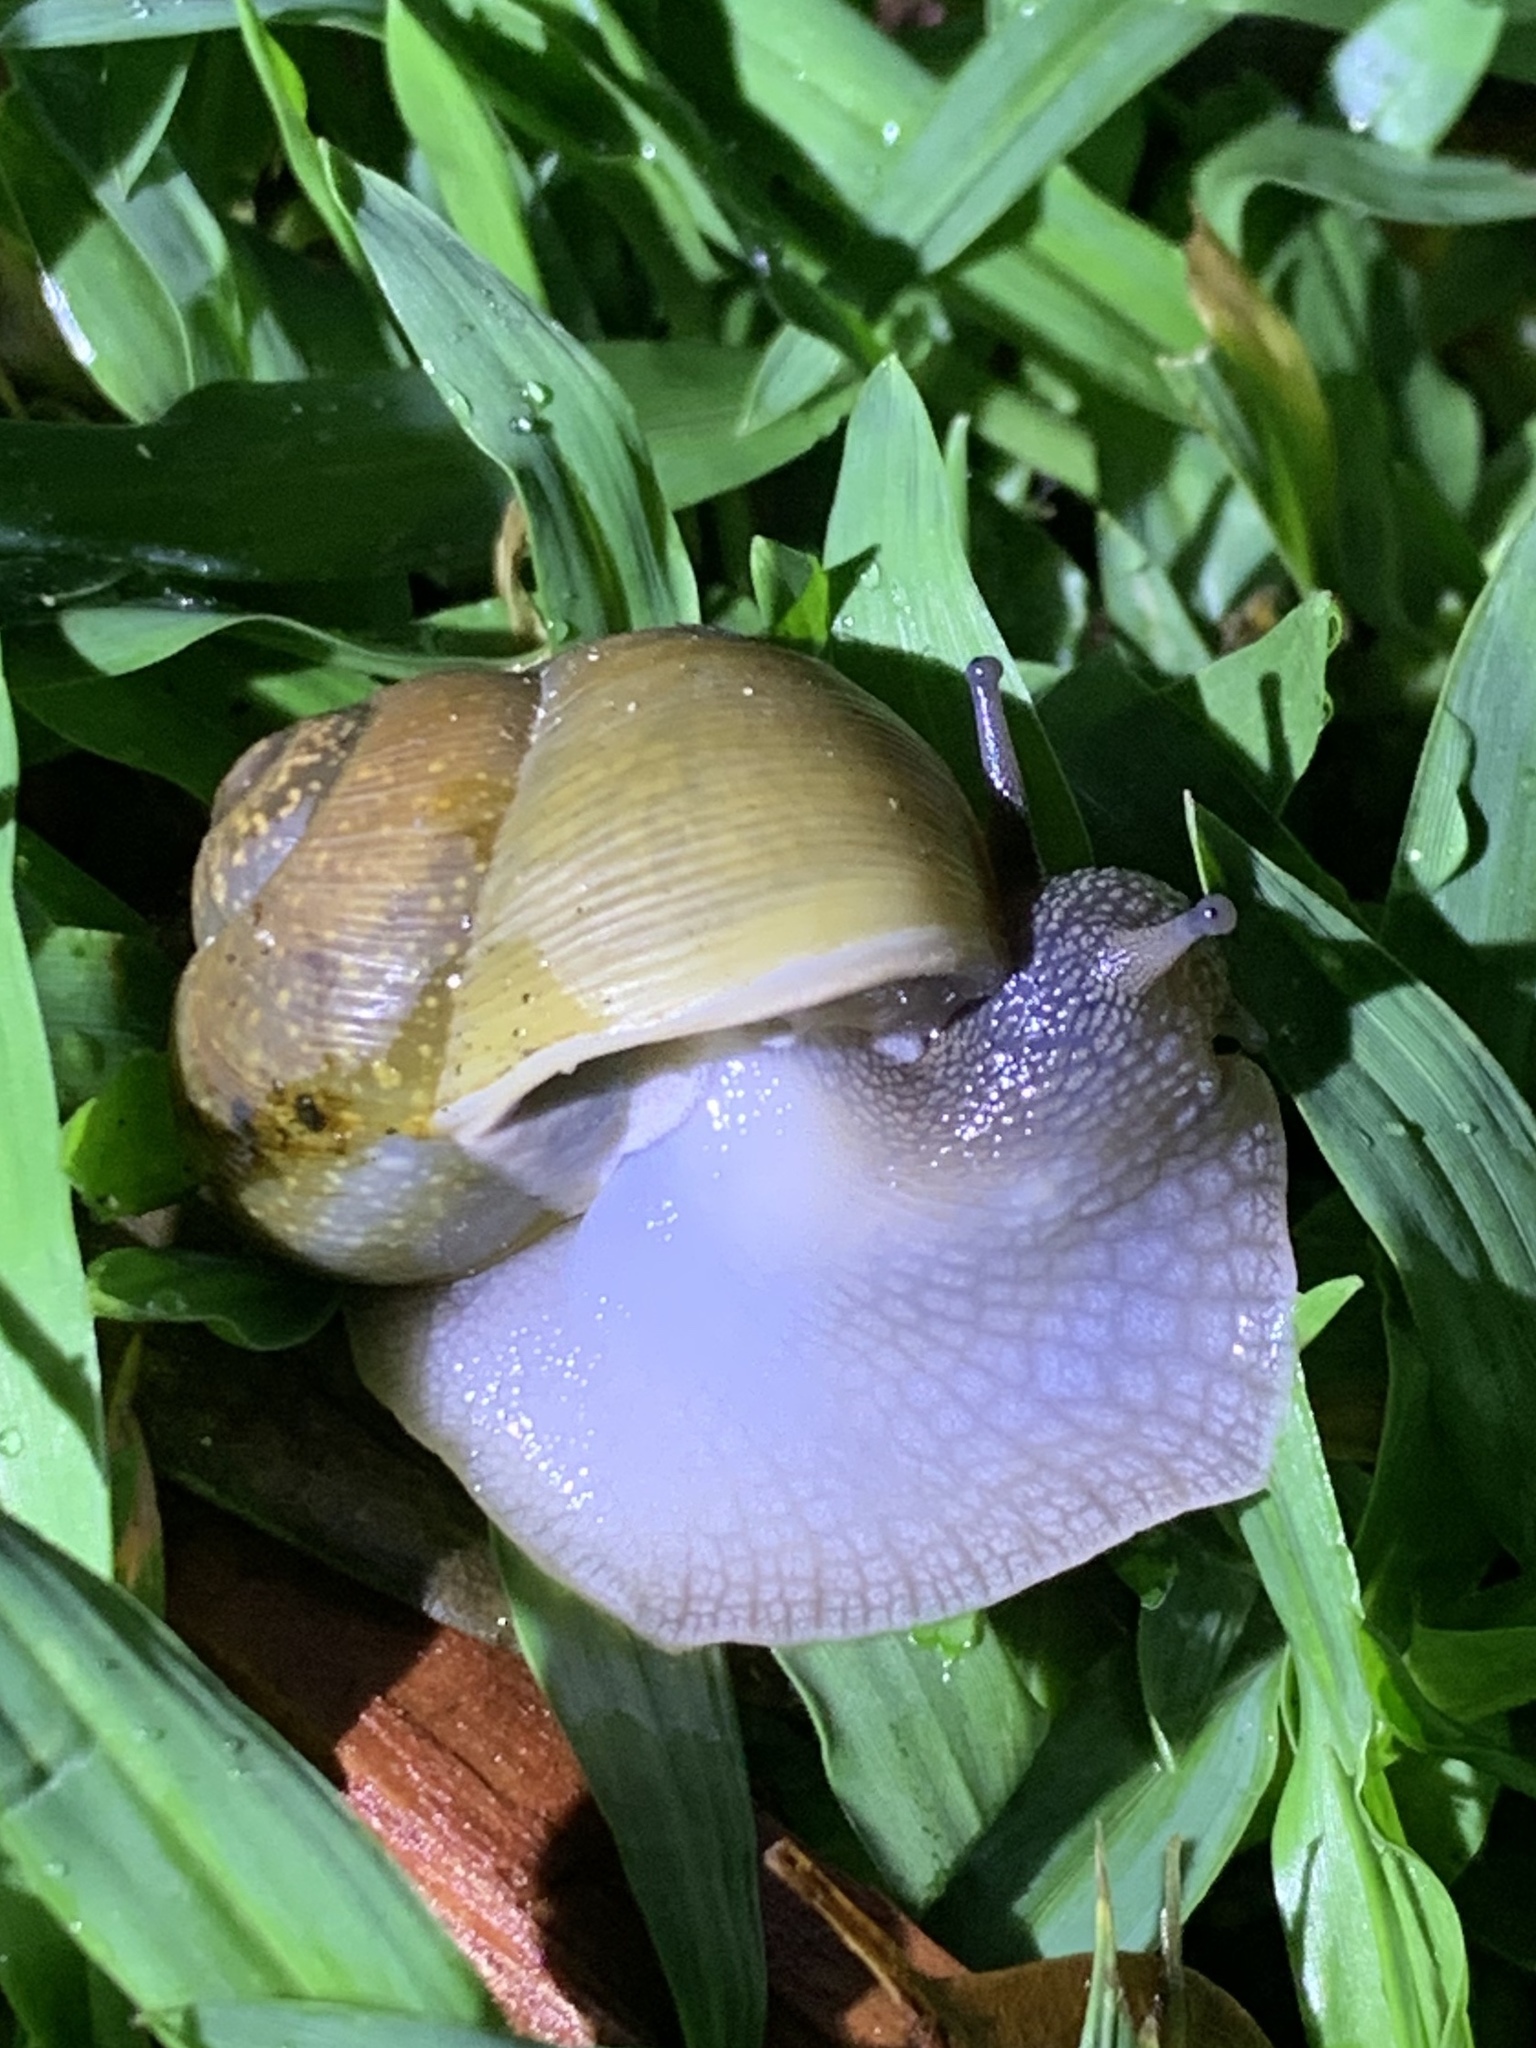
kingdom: Animalia
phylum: Mollusca
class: Gastropoda
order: Stylommatophora
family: Zachrysiidae
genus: Zachrysia
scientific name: Zachrysia provisoria
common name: Garden zachrysia
